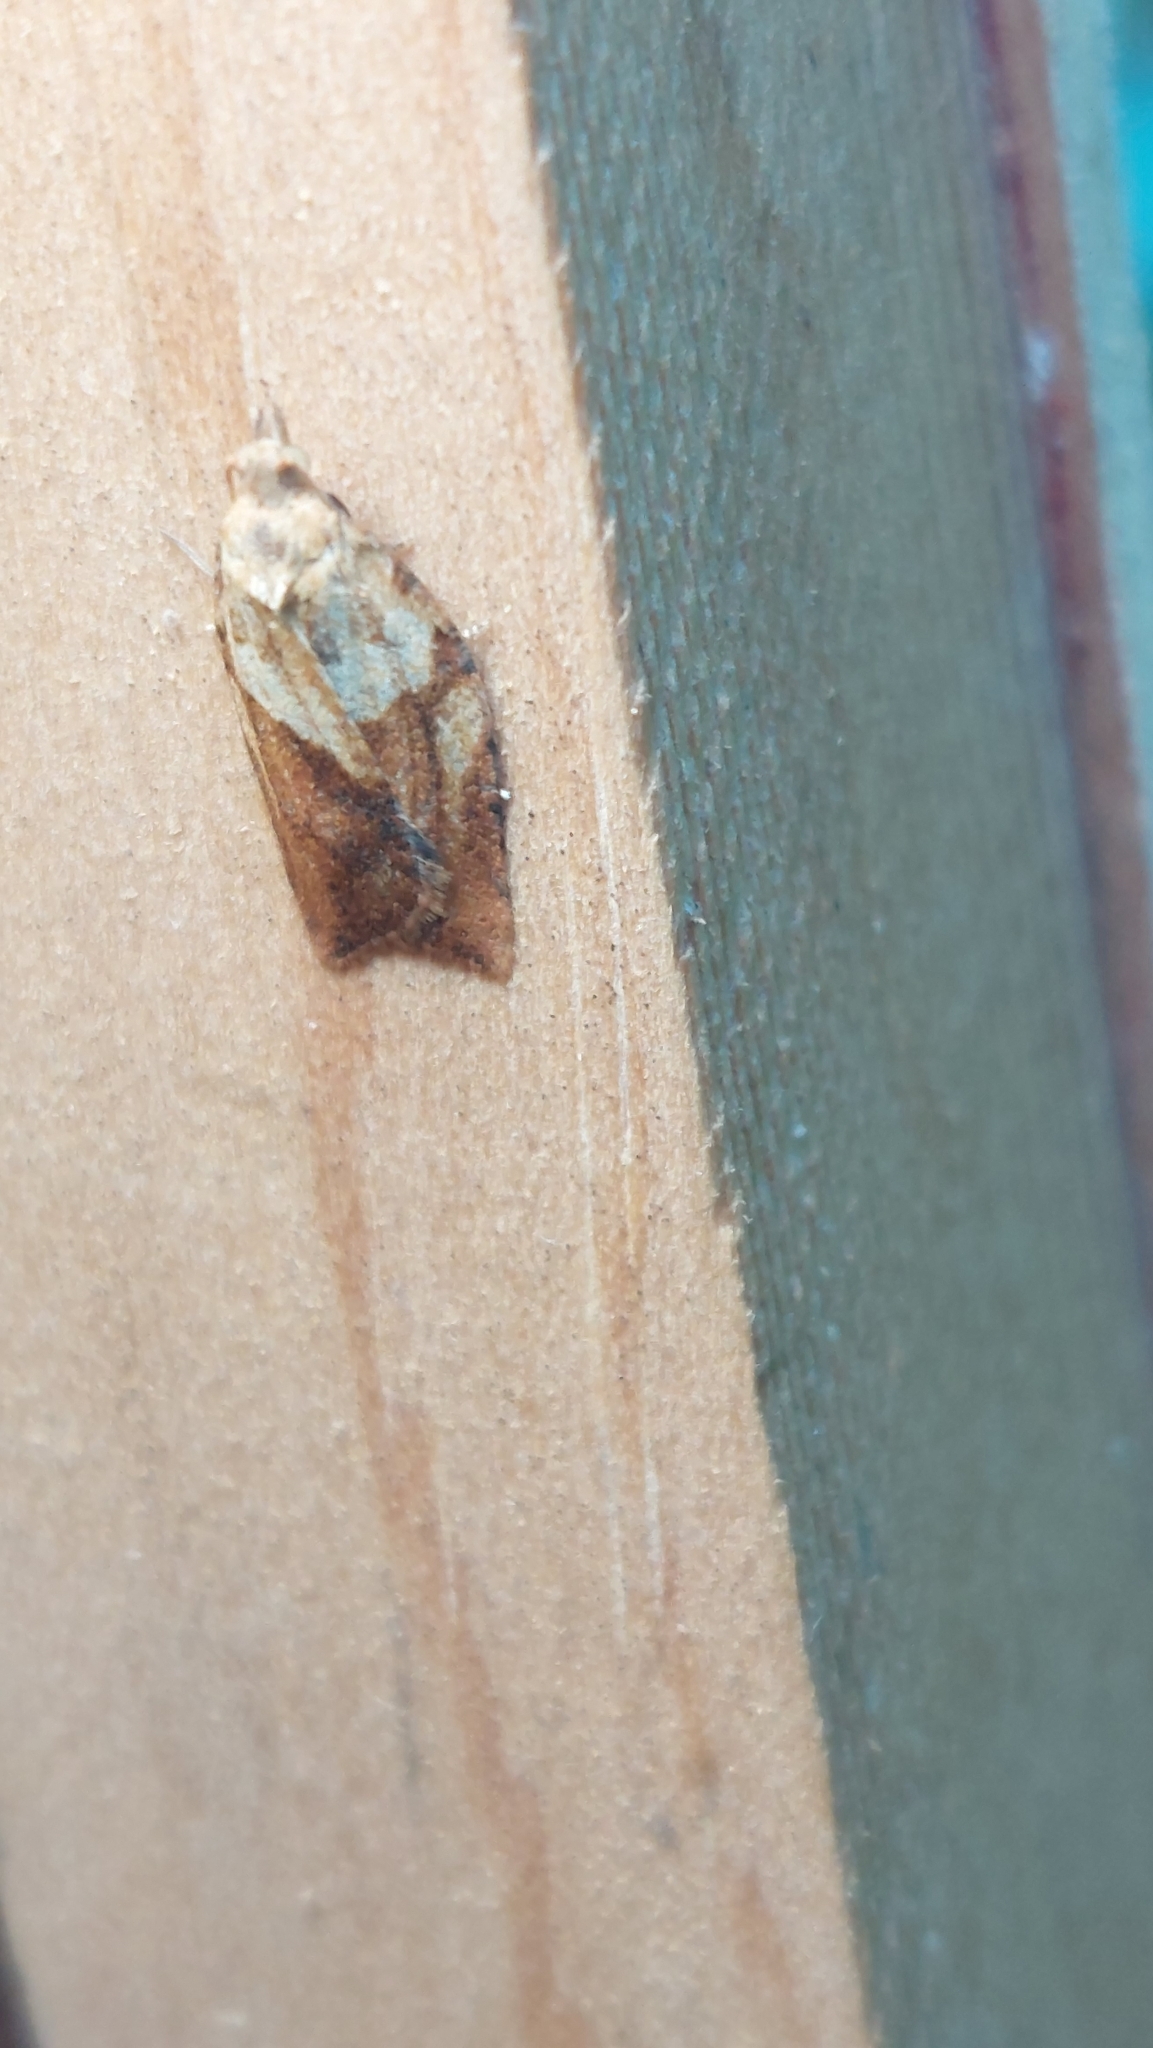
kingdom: Animalia
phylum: Arthropoda
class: Insecta
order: Lepidoptera
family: Tortricidae
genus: Epiphyas
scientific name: Epiphyas postvittana
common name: Light brown apple moth
